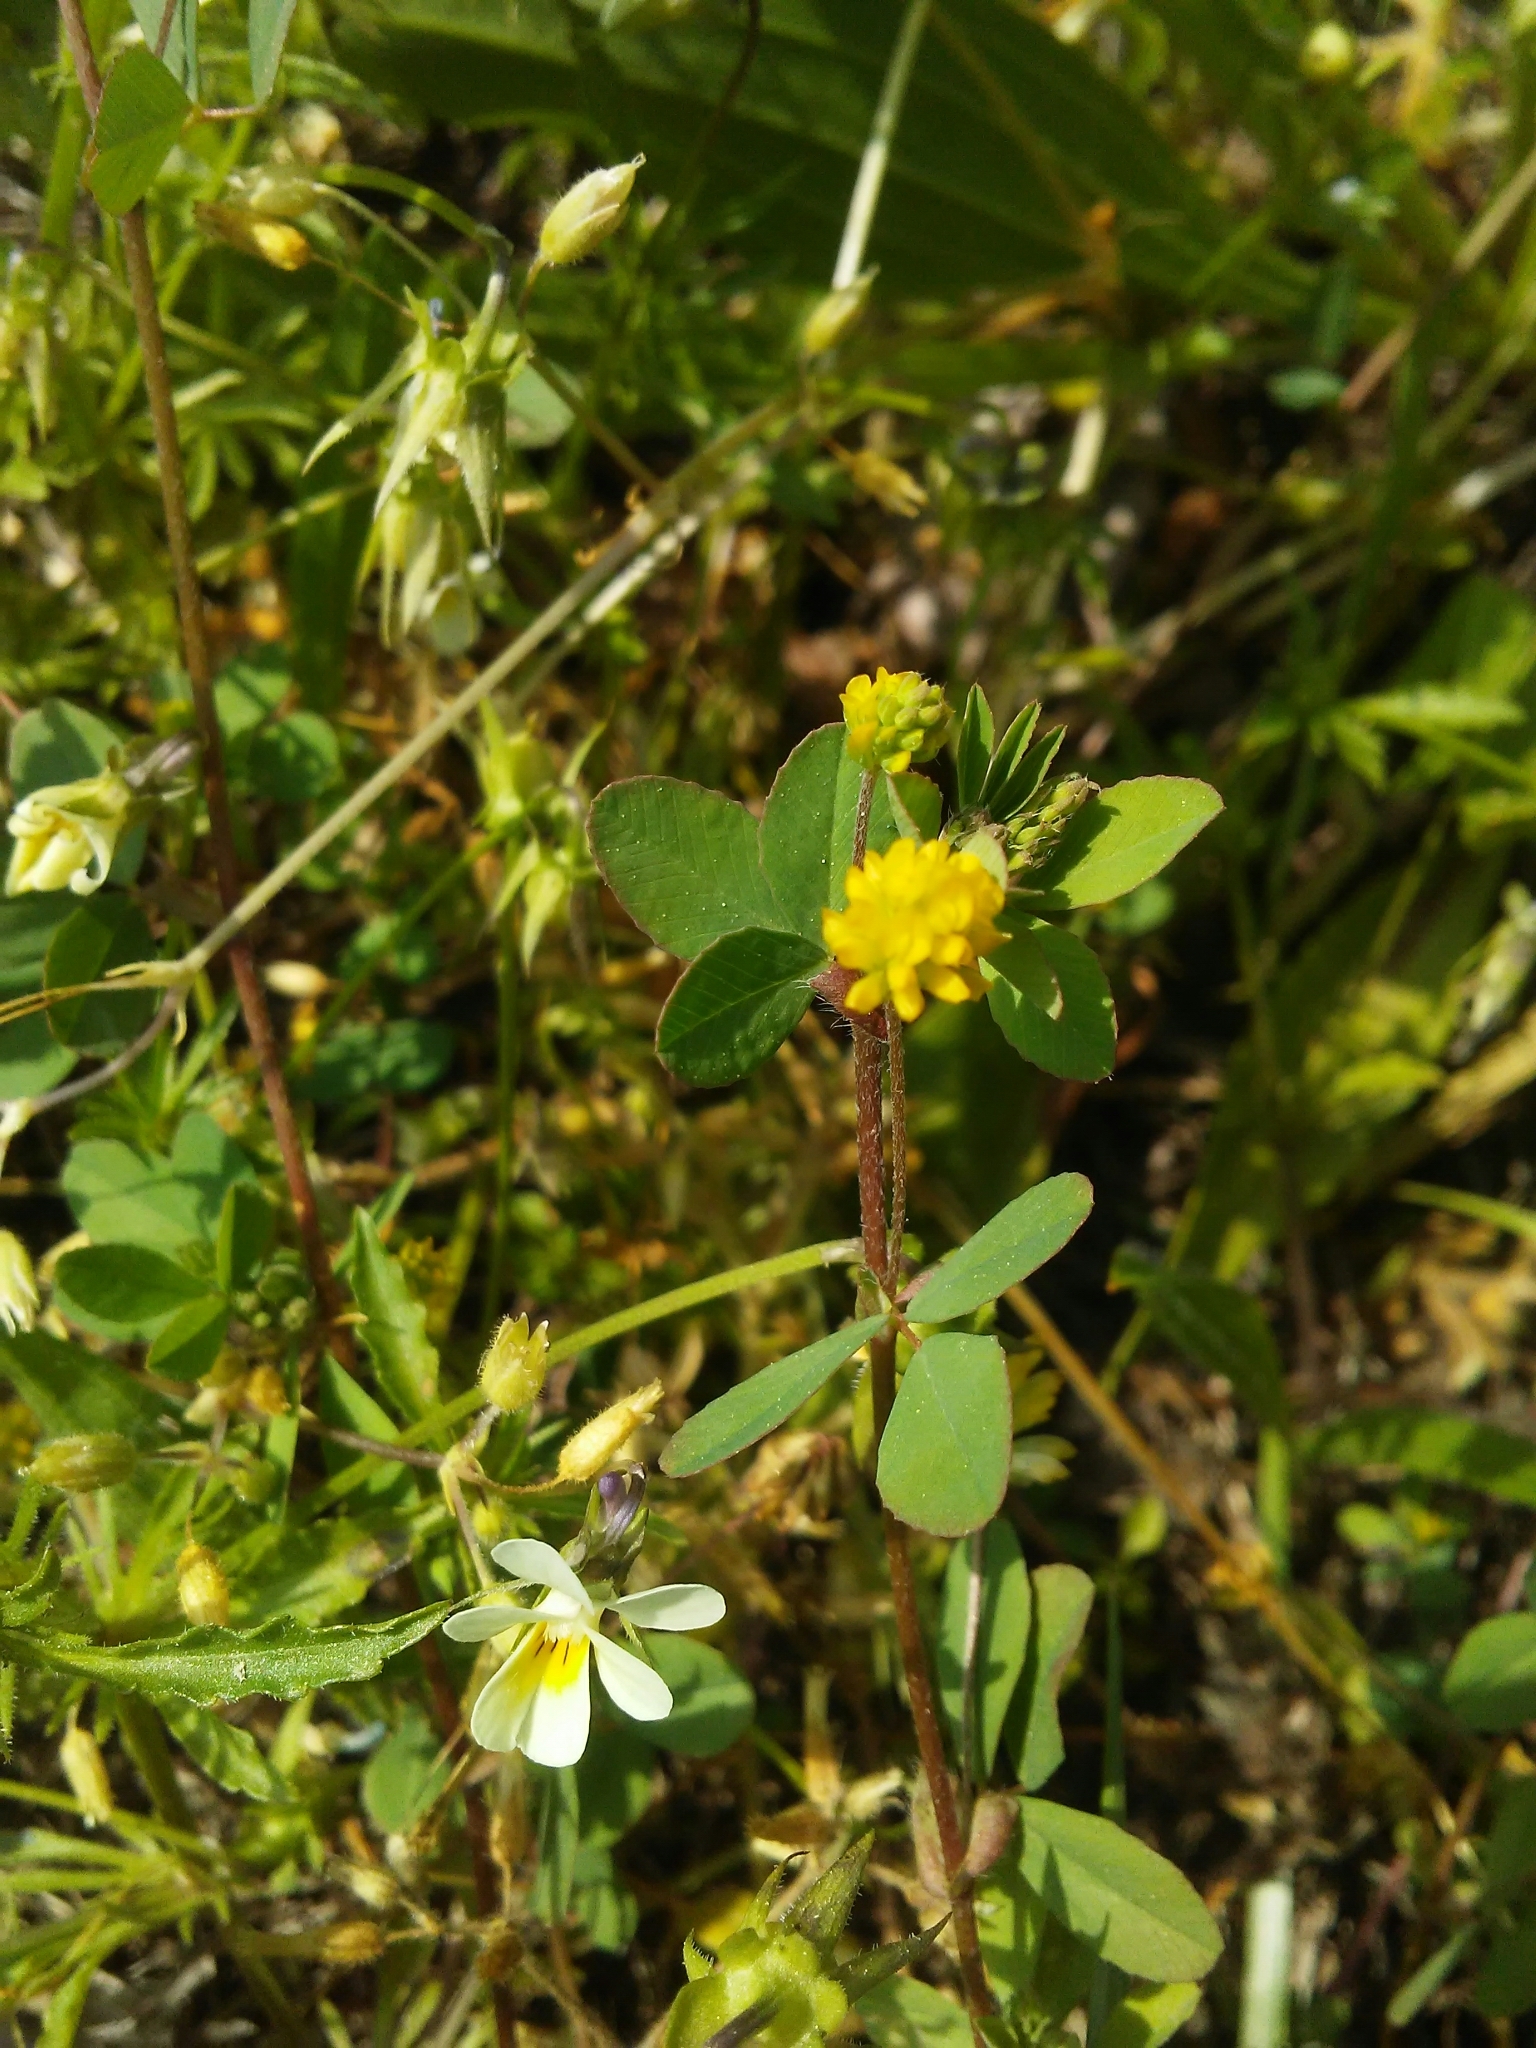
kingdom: Plantae
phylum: Tracheophyta
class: Magnoliopsida
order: Fabales
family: Fabaceae
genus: Trifolium
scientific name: Trifolium dubium
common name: Suckling clover
